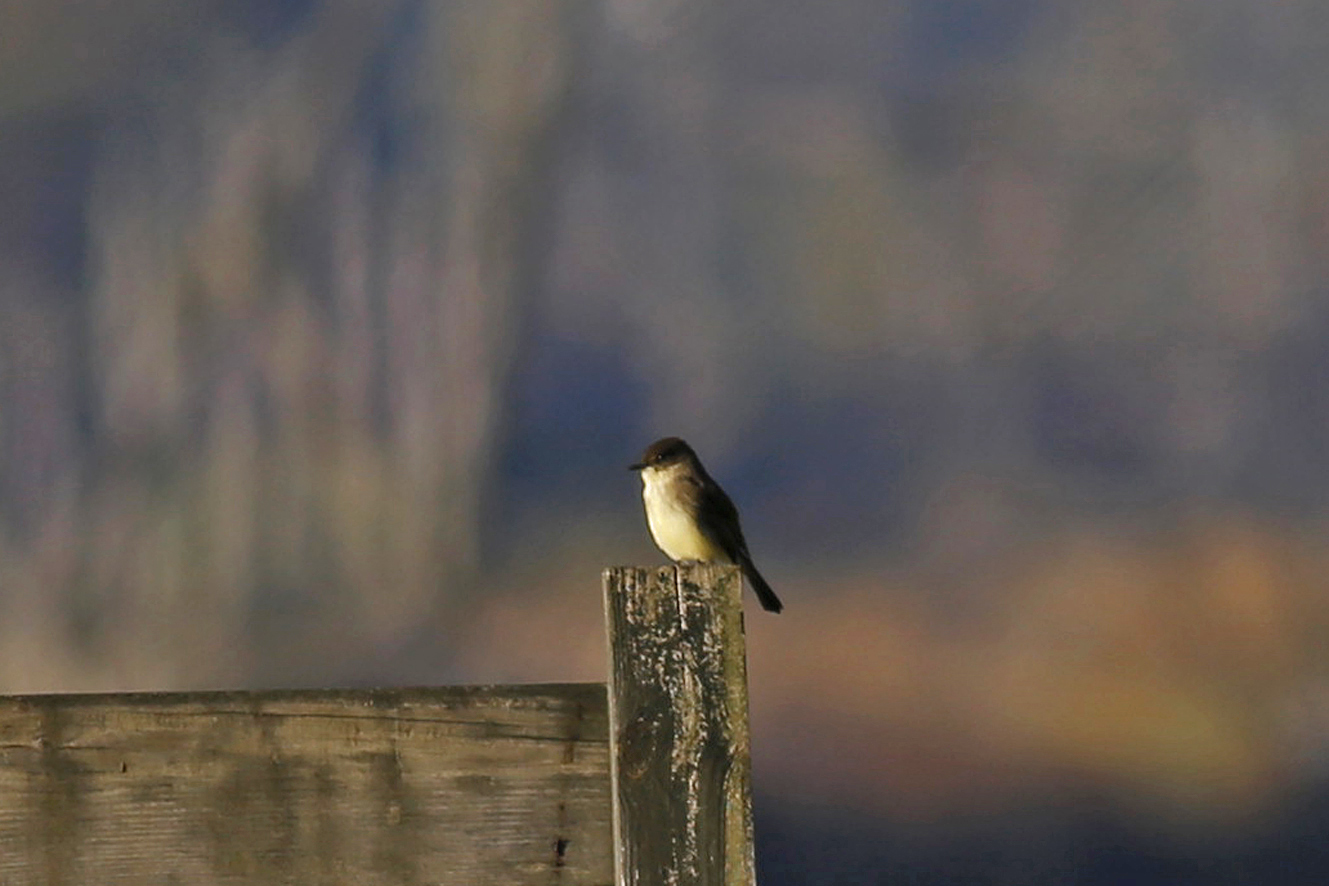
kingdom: Animalia
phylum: Chordata
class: Aves
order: Passeriformes
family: Tyrannidae
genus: Sayornis
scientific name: Sayornis phoebe
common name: Eastern phoebe
